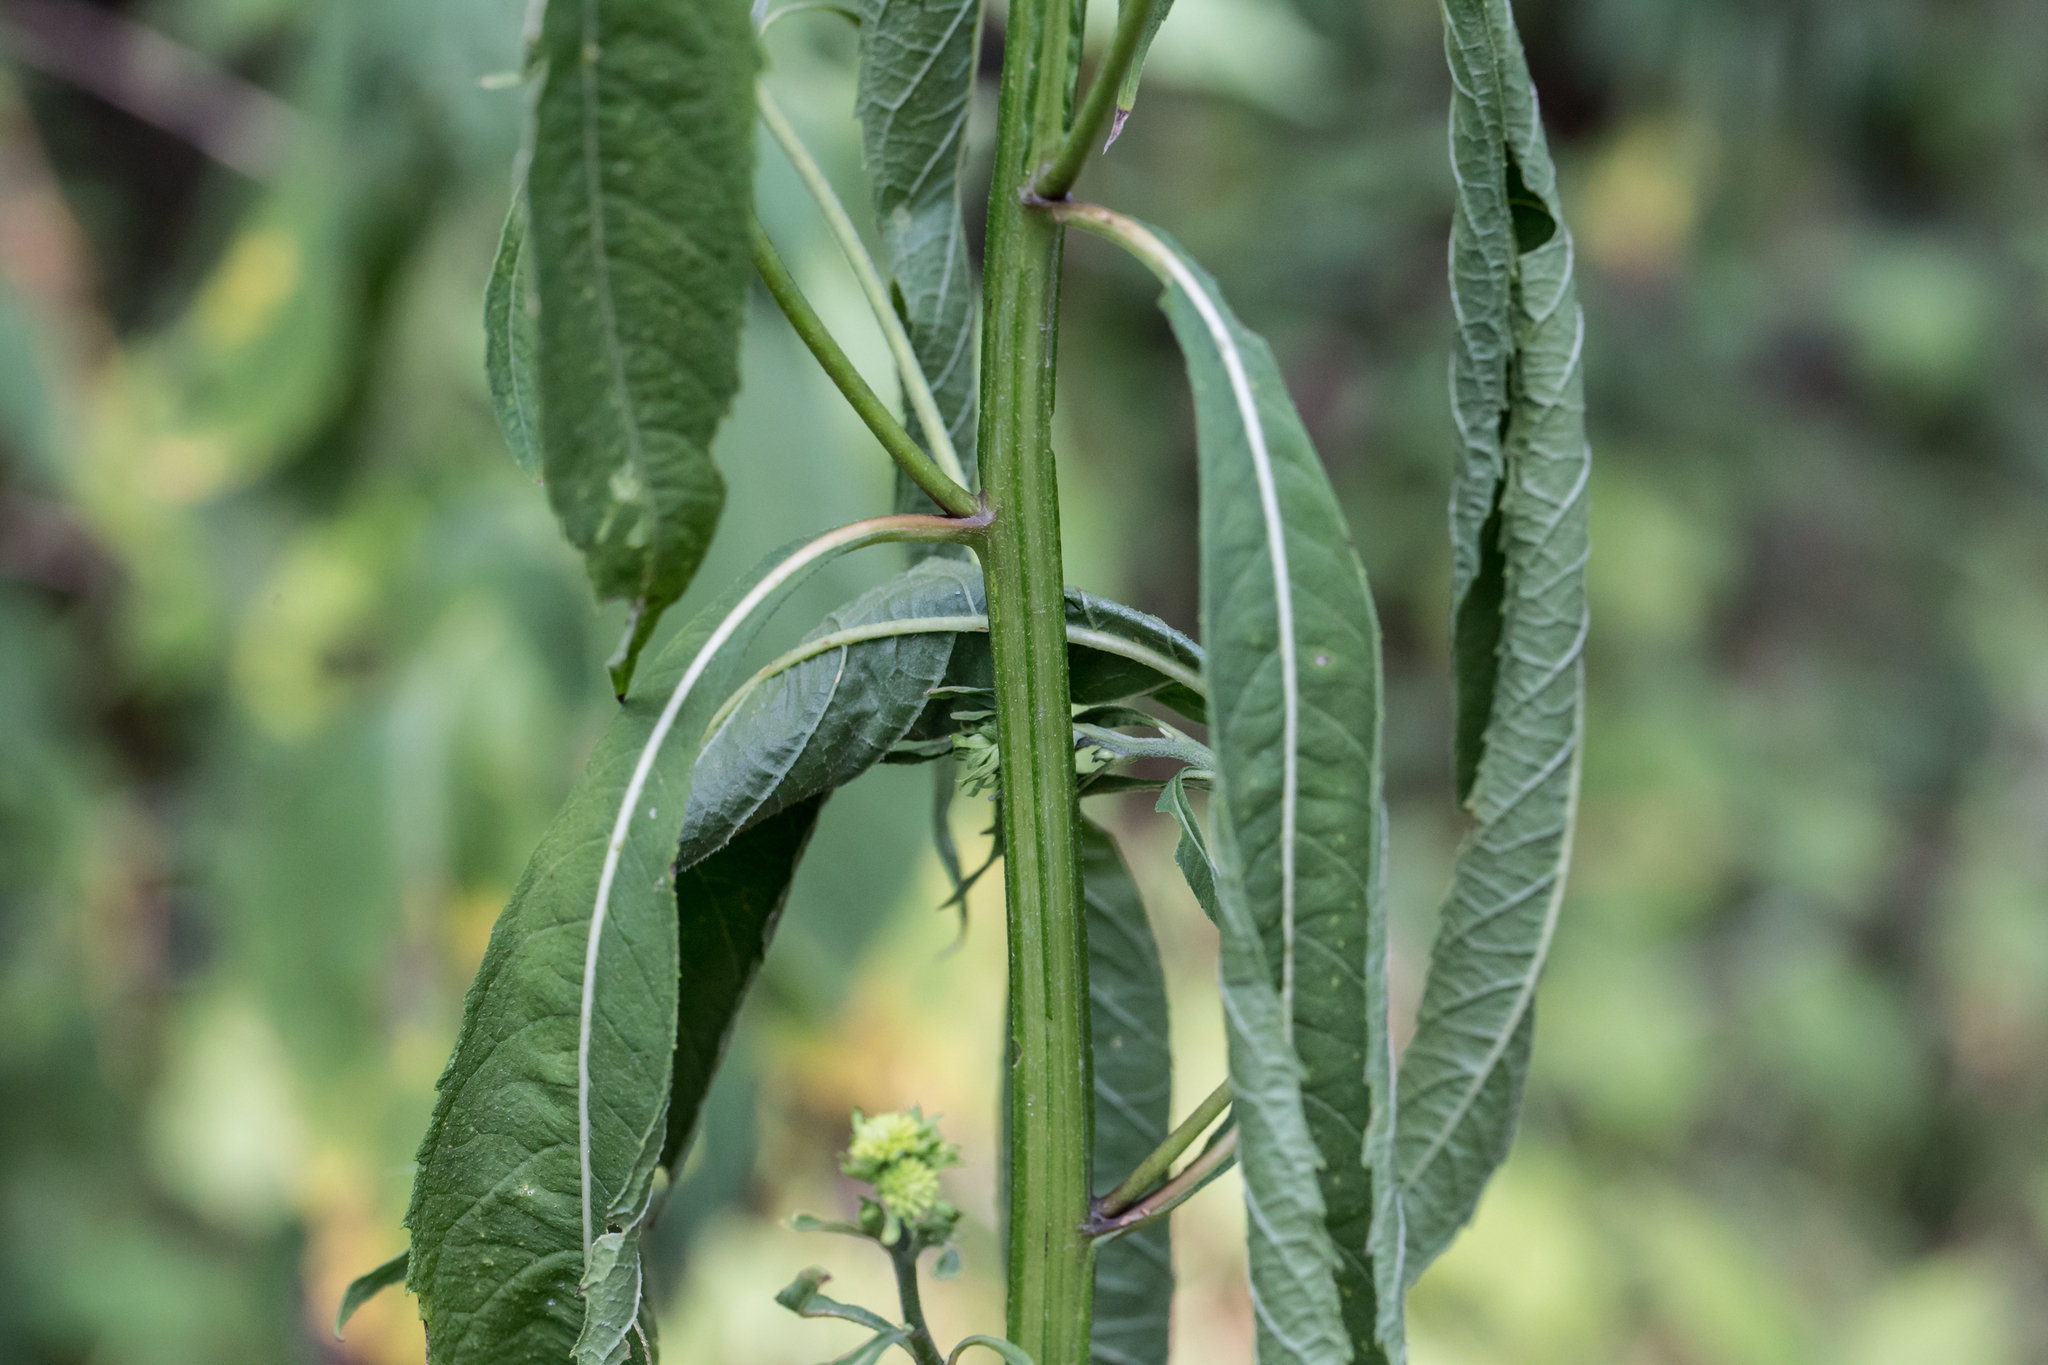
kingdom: Plantae
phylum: Tracheophyta
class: Magnoliopsida
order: Asterales
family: Asteraceae
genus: Verbesina
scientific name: Verbesina alternifolia
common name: Wingstem
